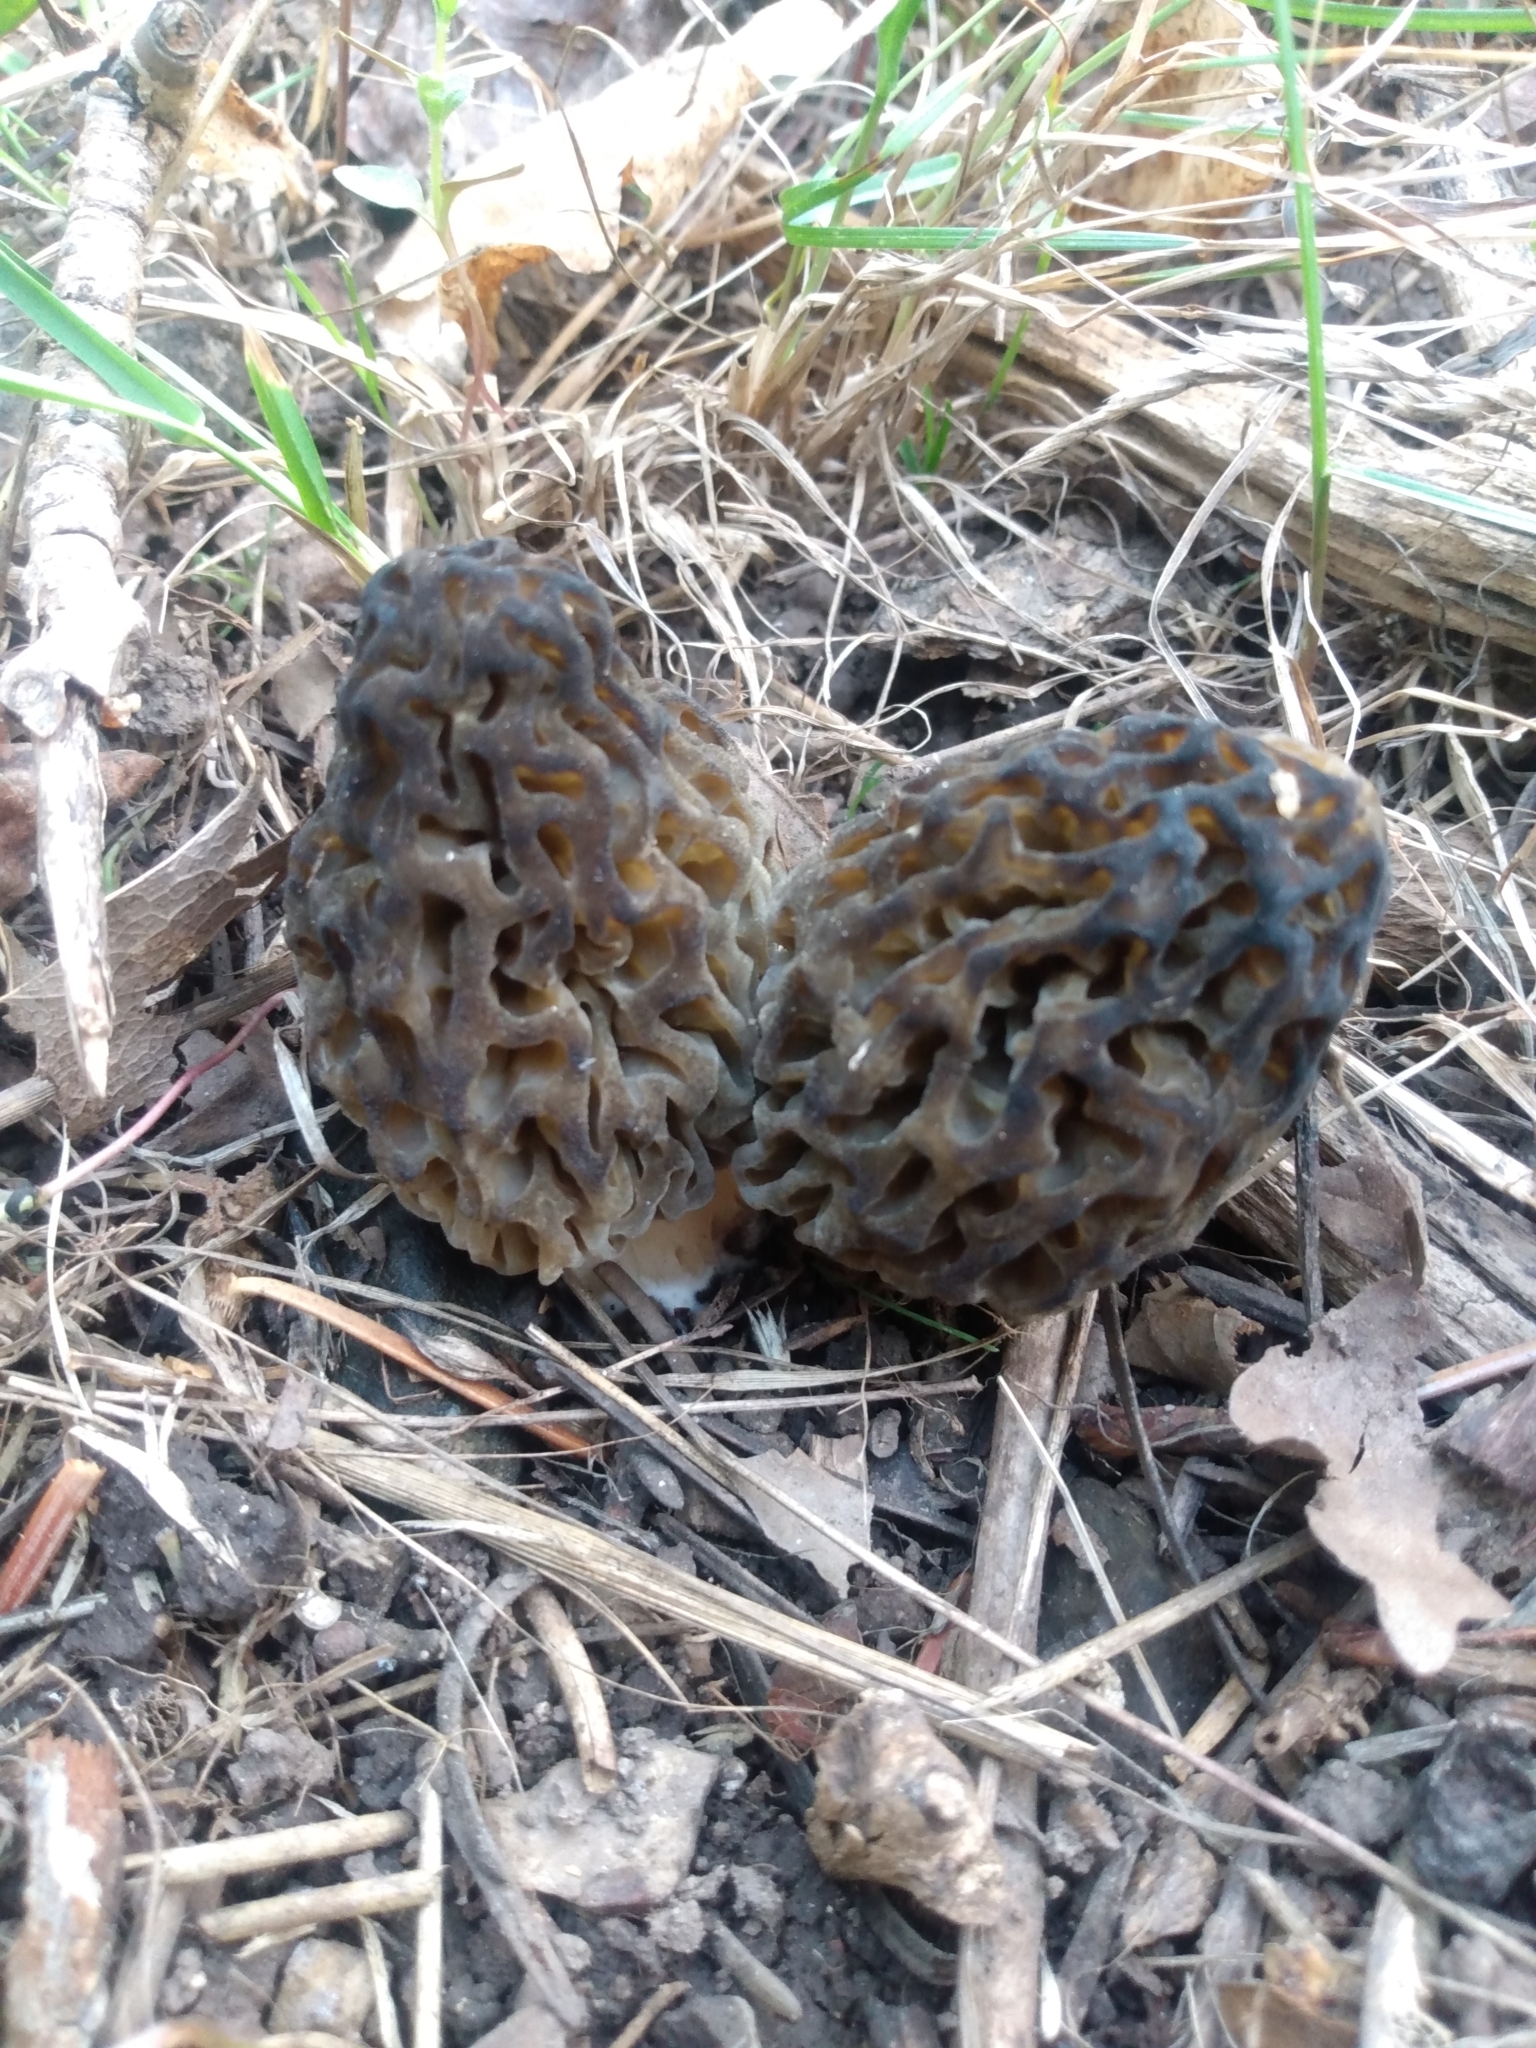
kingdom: Fungi
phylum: Ascomycota
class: Pezizomycetes
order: Pezizales
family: Morchellaceae
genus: Morchella
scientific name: Morchella snyderi
